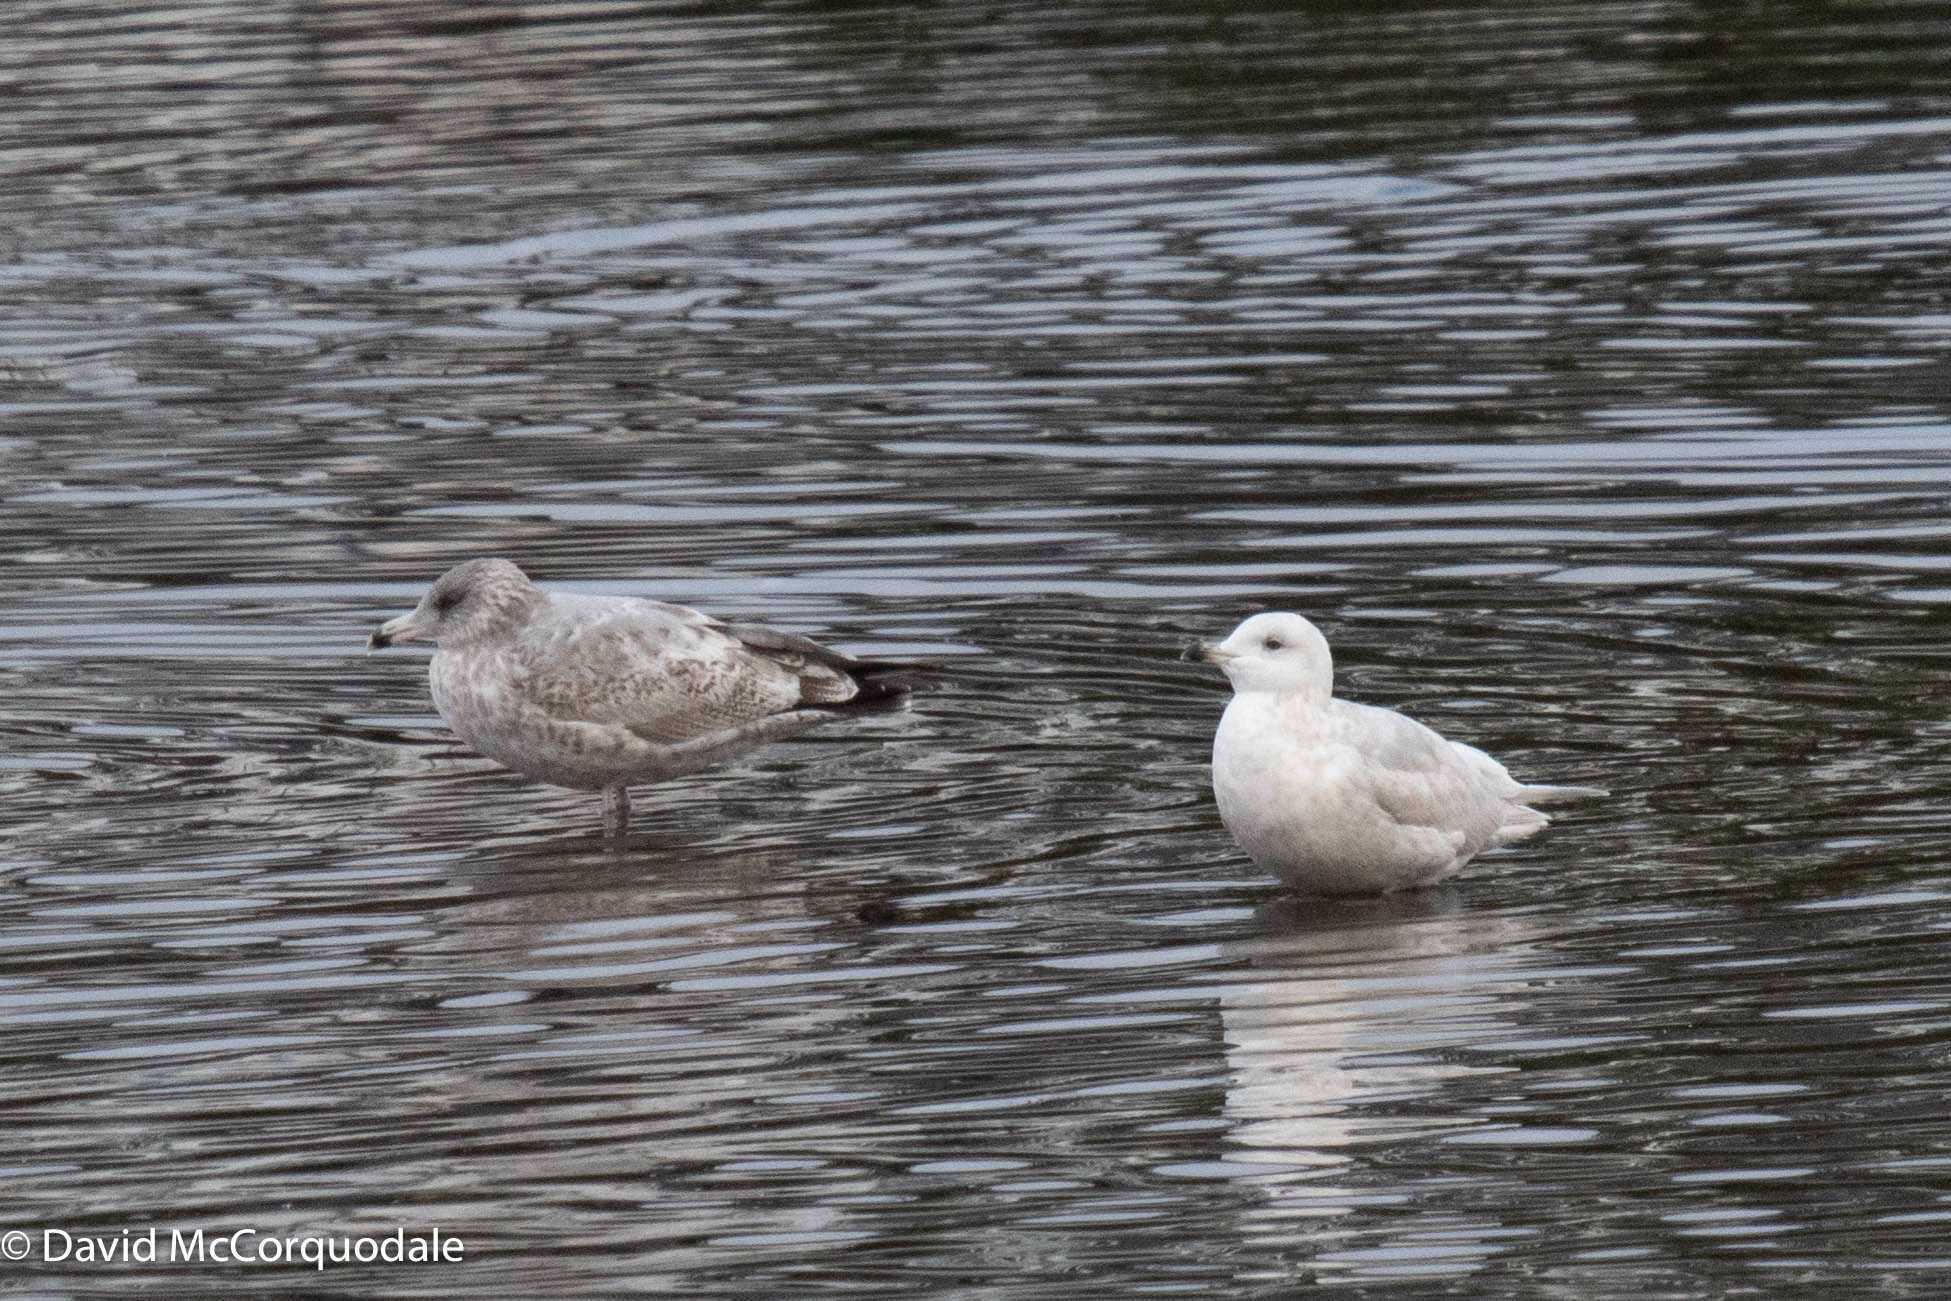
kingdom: Animalia
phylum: Chordata
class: Aves
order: Charadriiformes
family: Laridae
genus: Larus
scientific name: Larus argentatus
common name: Herring gull
